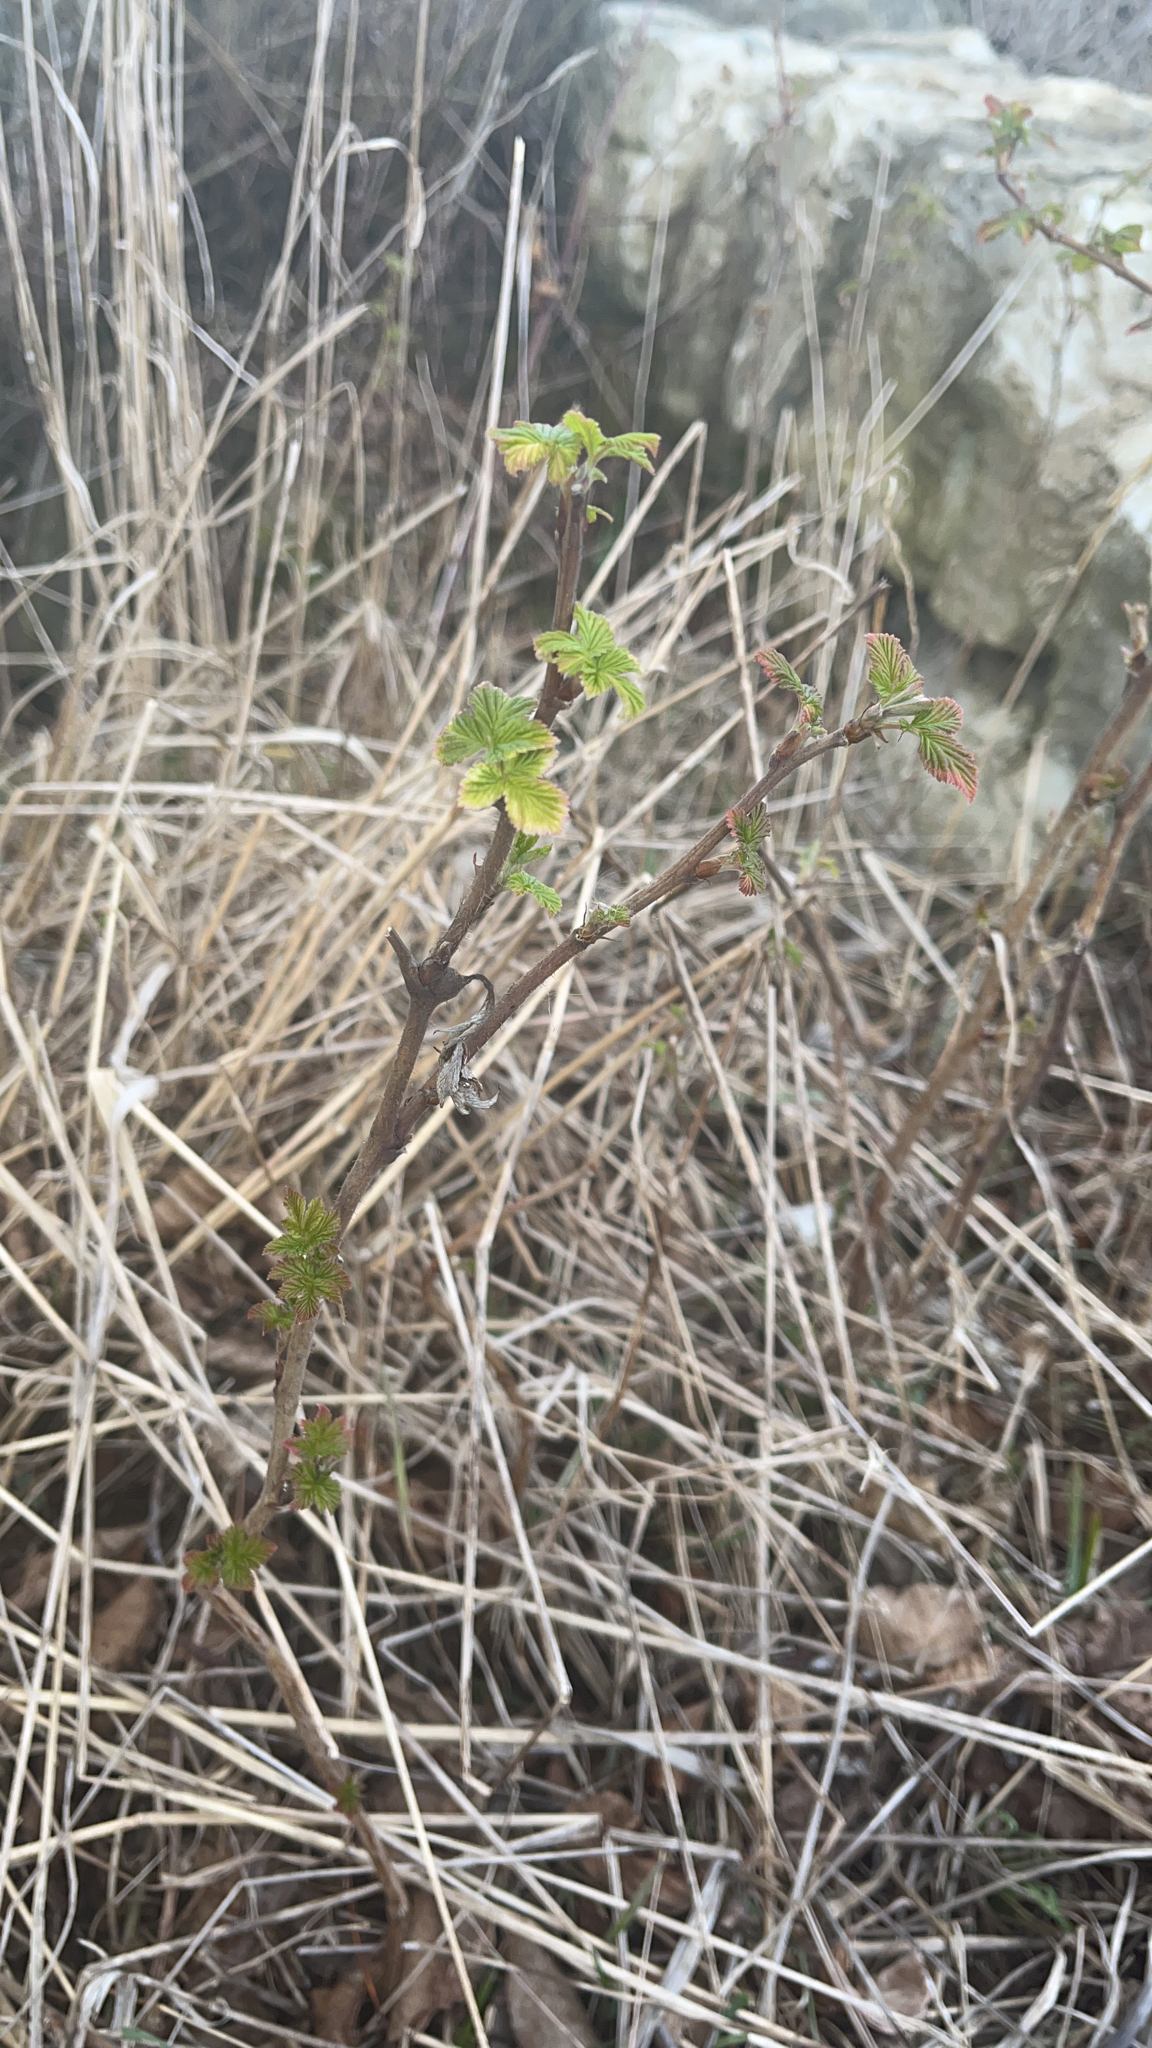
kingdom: Plantae
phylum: Tracheophyta
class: Magnoliopsida
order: Rosales
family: Rosaceae
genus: Rubus
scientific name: Rubus idaeus
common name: Raspberry
